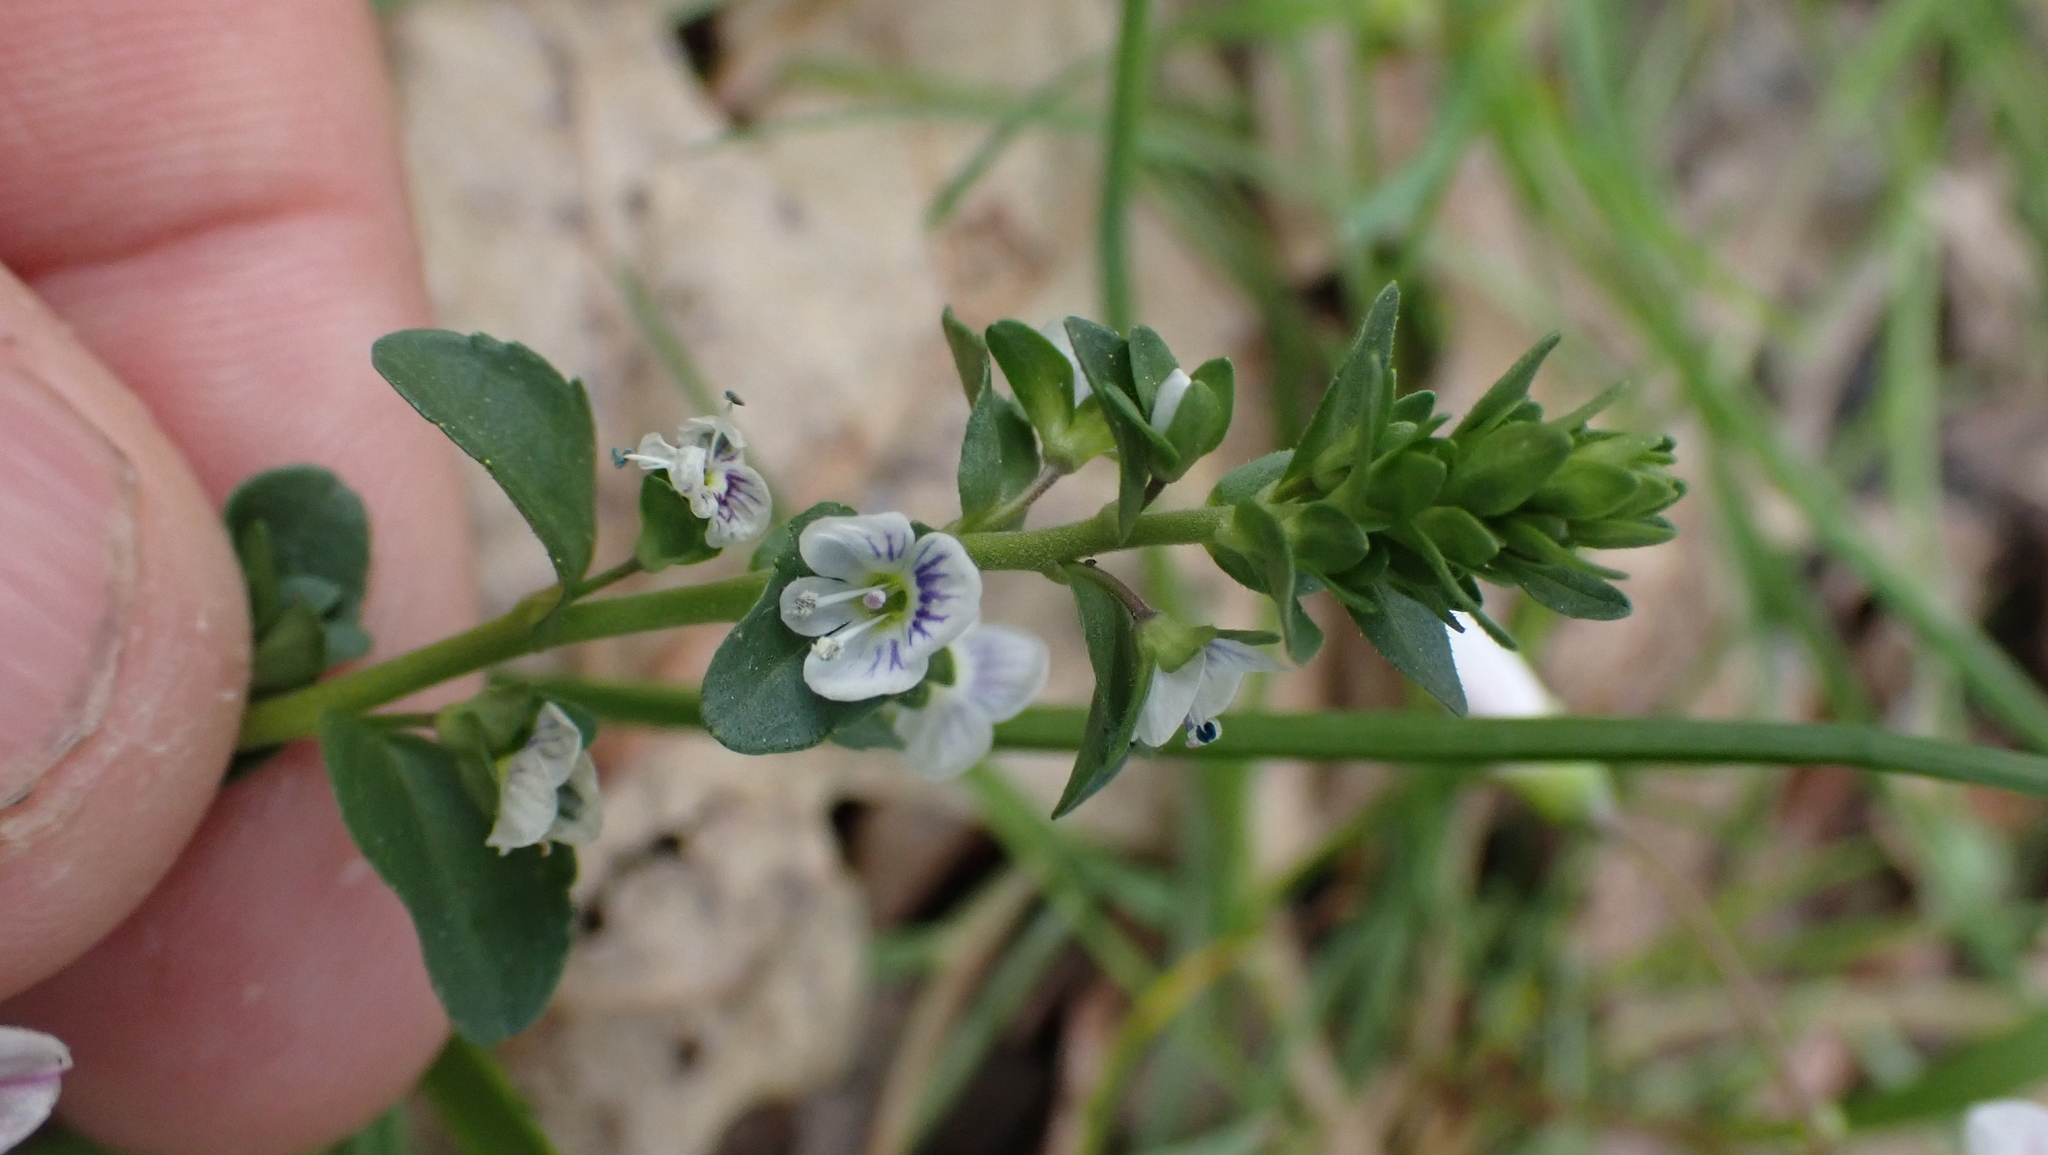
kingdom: Plantae
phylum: Tracheophyta
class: Magnoliopsida
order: Lamiales
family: Plantaginaceae
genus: Veronica
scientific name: Veronica serpyllifolia
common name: Thyme-leaved speedwell
